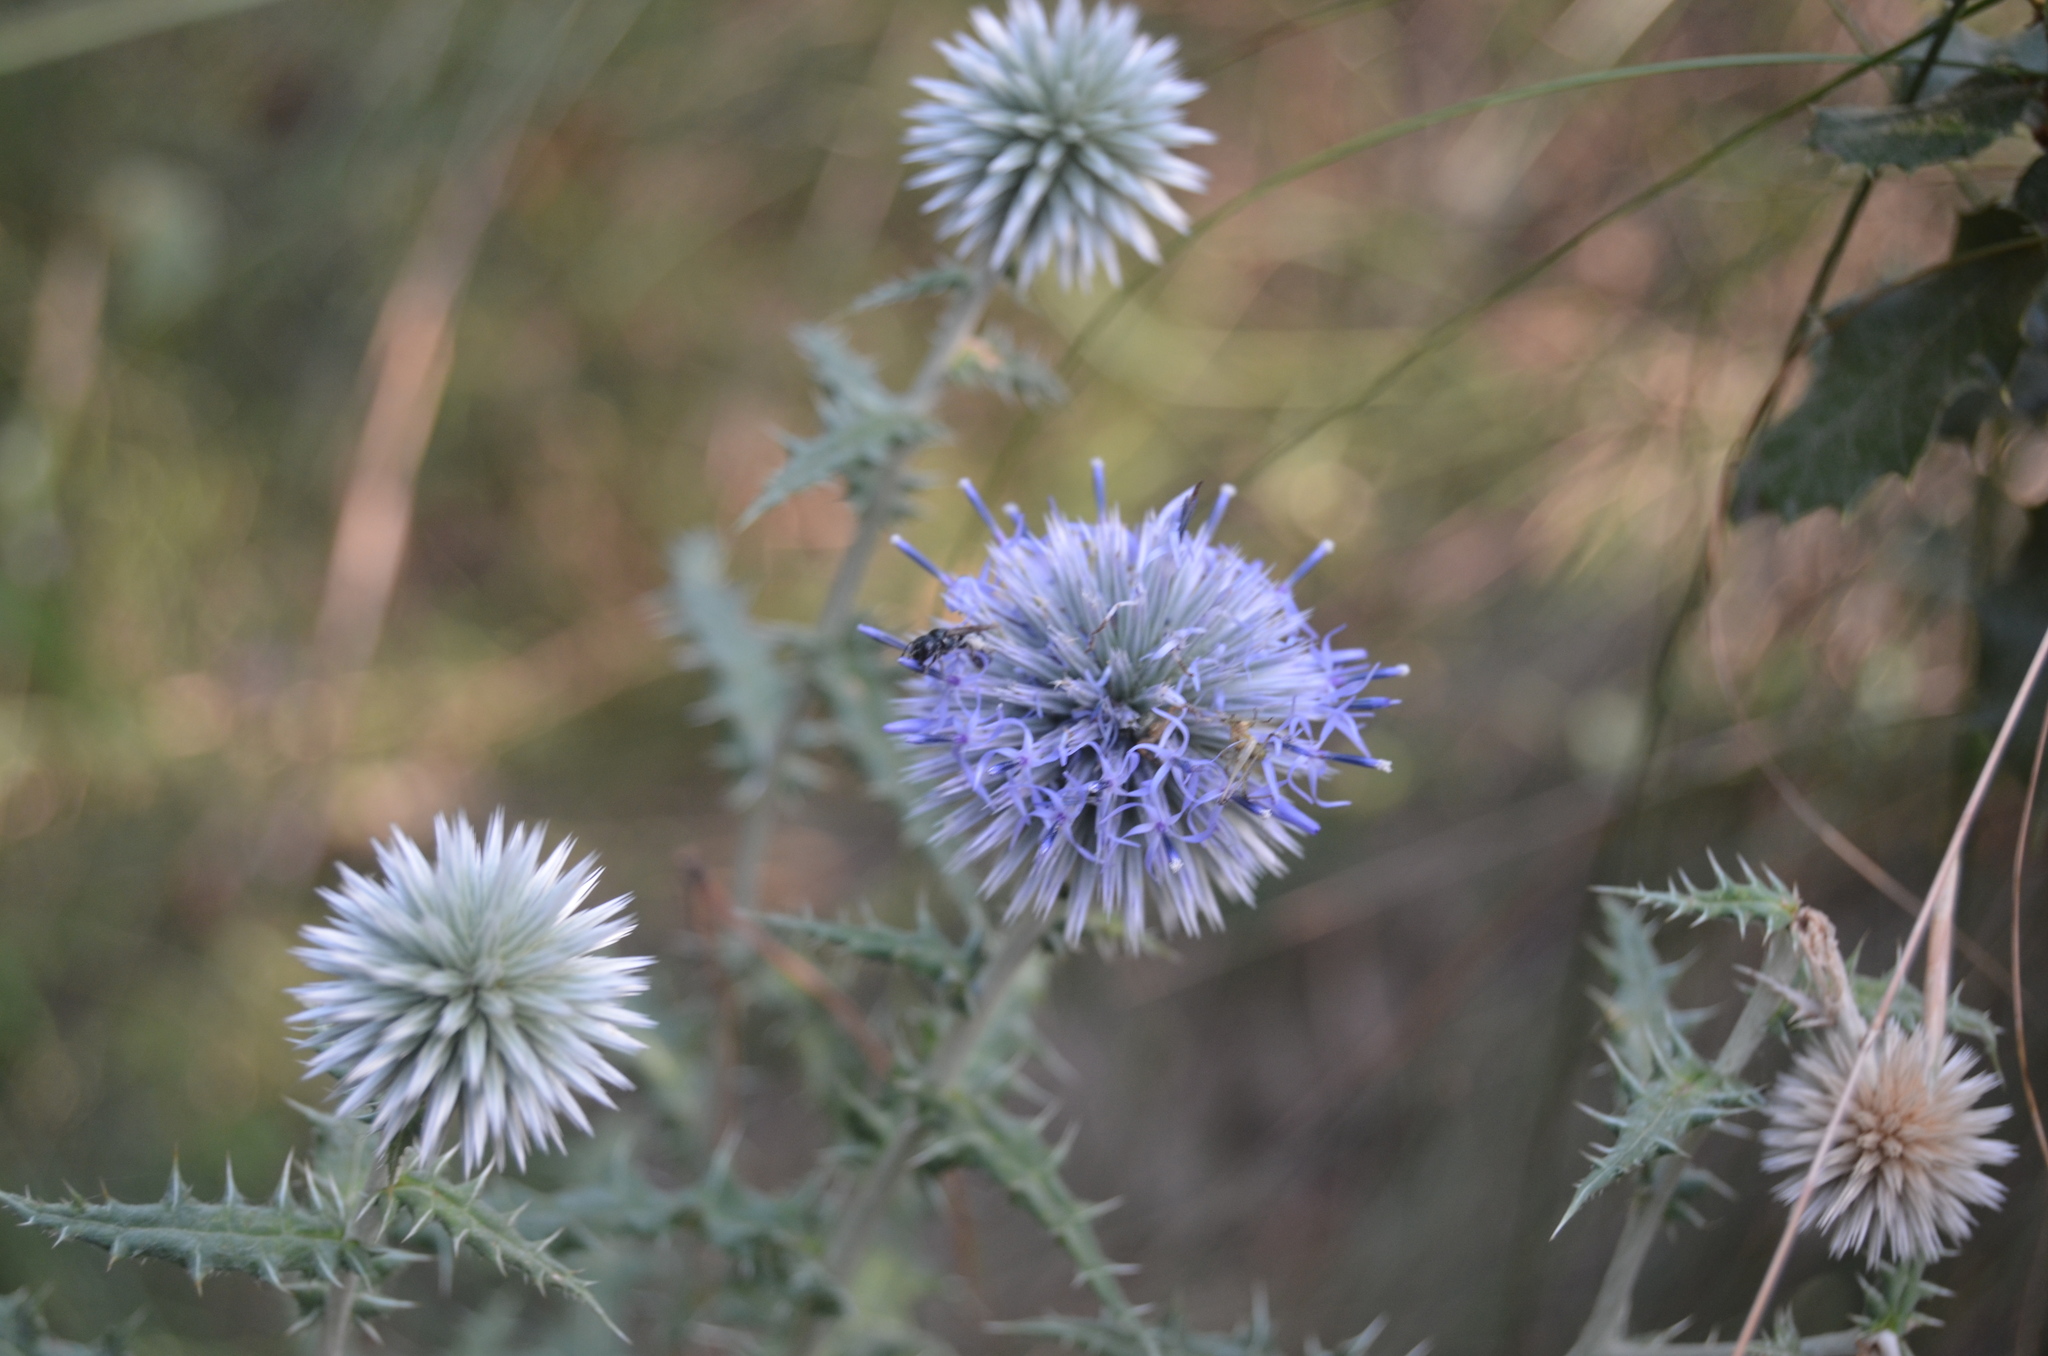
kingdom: Plantae
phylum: Tracheophyta
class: Magnoliopsida
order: Asterales
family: Asteraceae
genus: Echinops
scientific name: Echinops ritro
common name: Globe thistle
